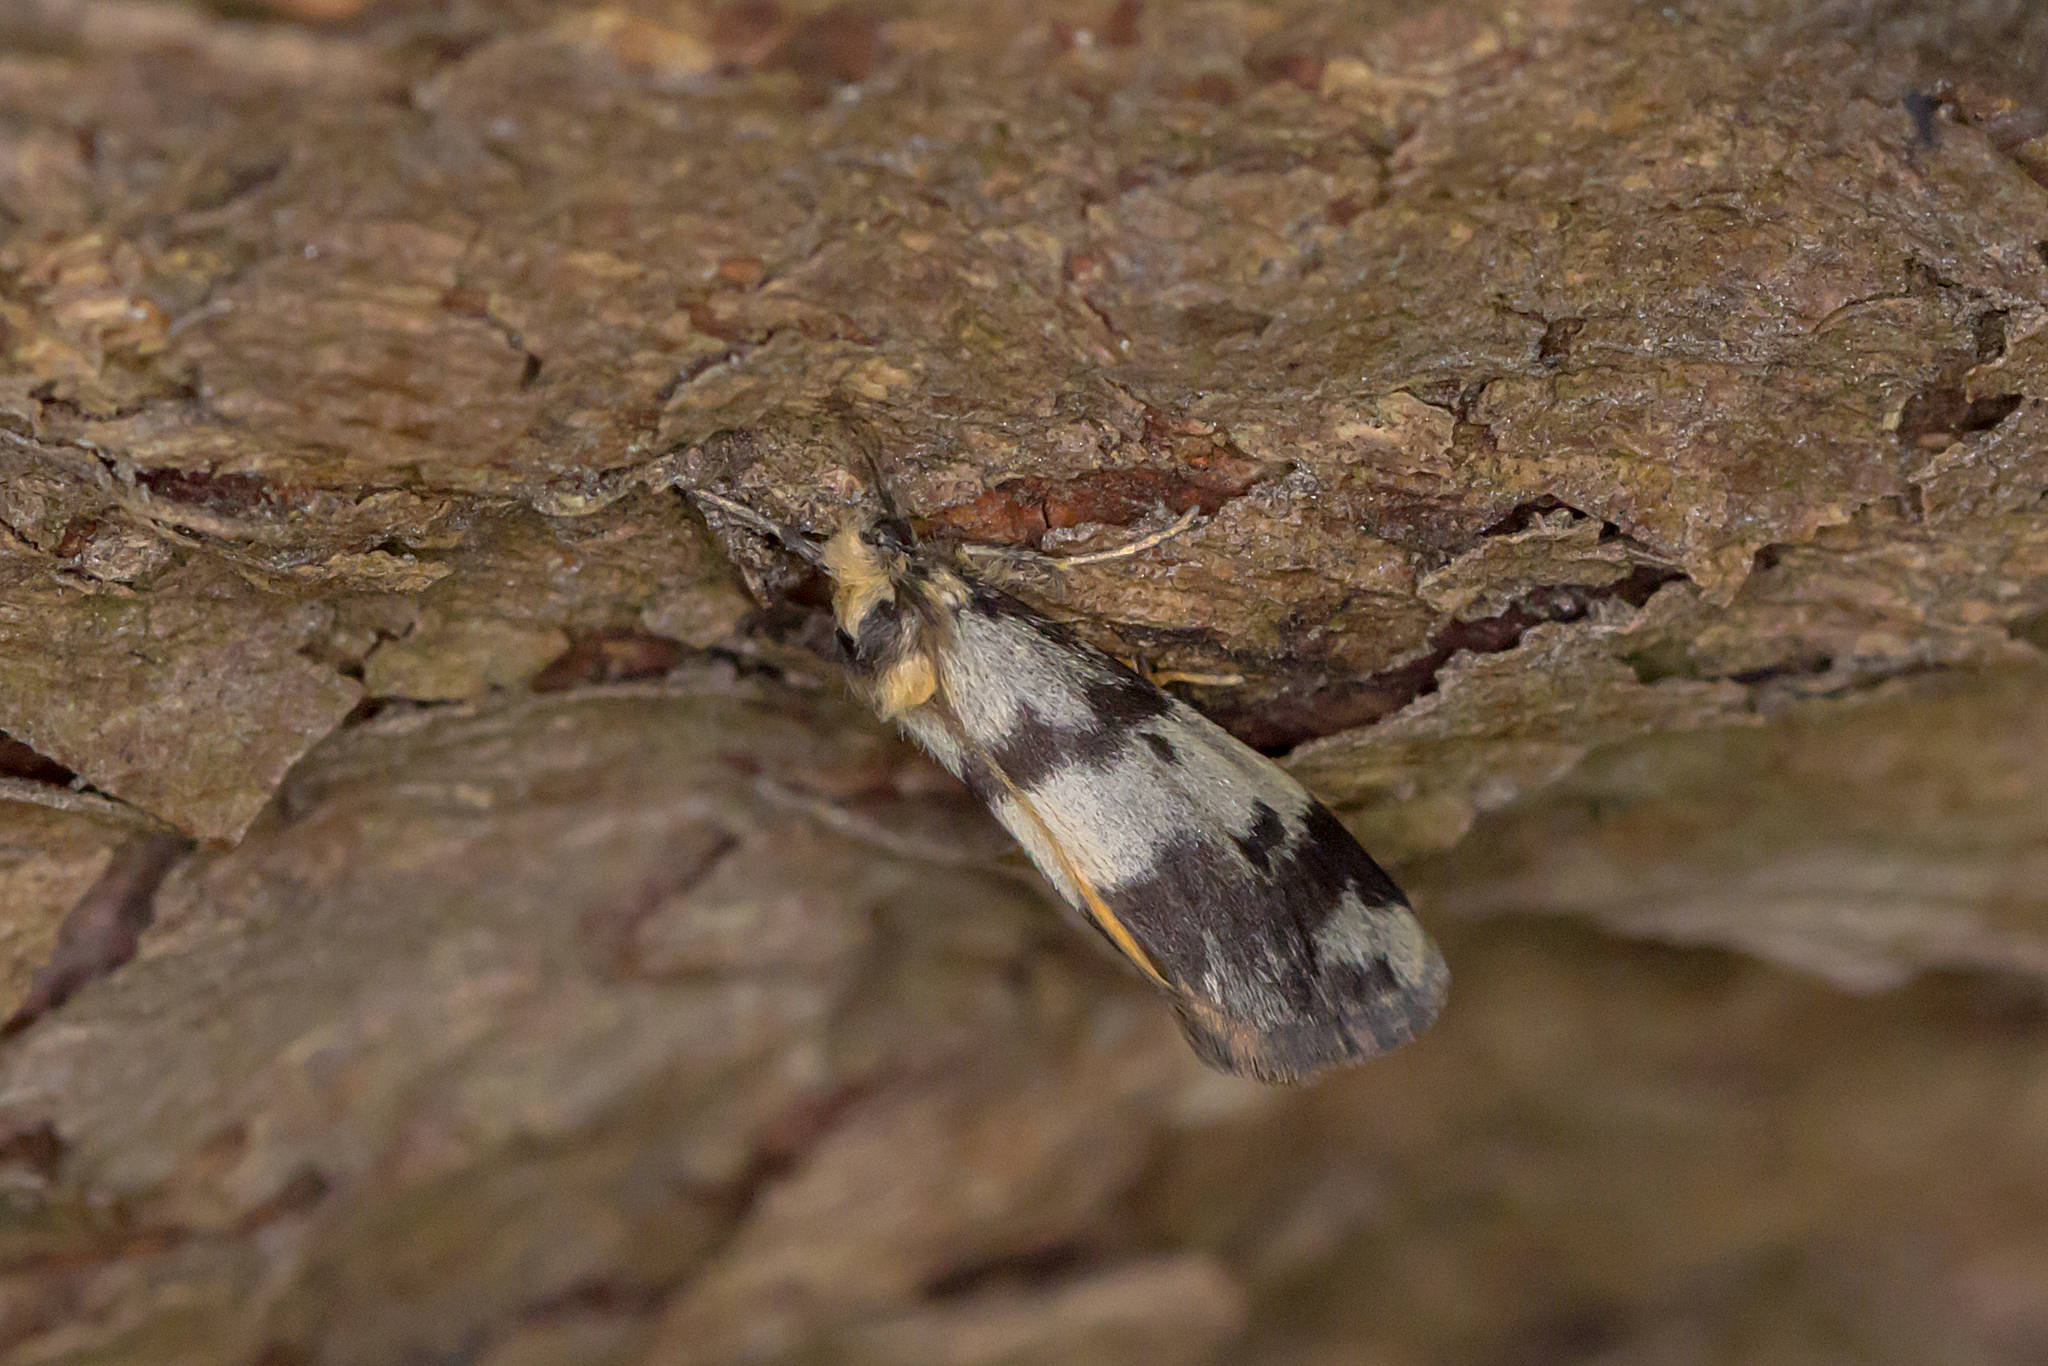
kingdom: Animalia
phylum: Arthropoda
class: Insecta
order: Lepidoptera
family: Erebidae
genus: Anestia
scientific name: Anestia
